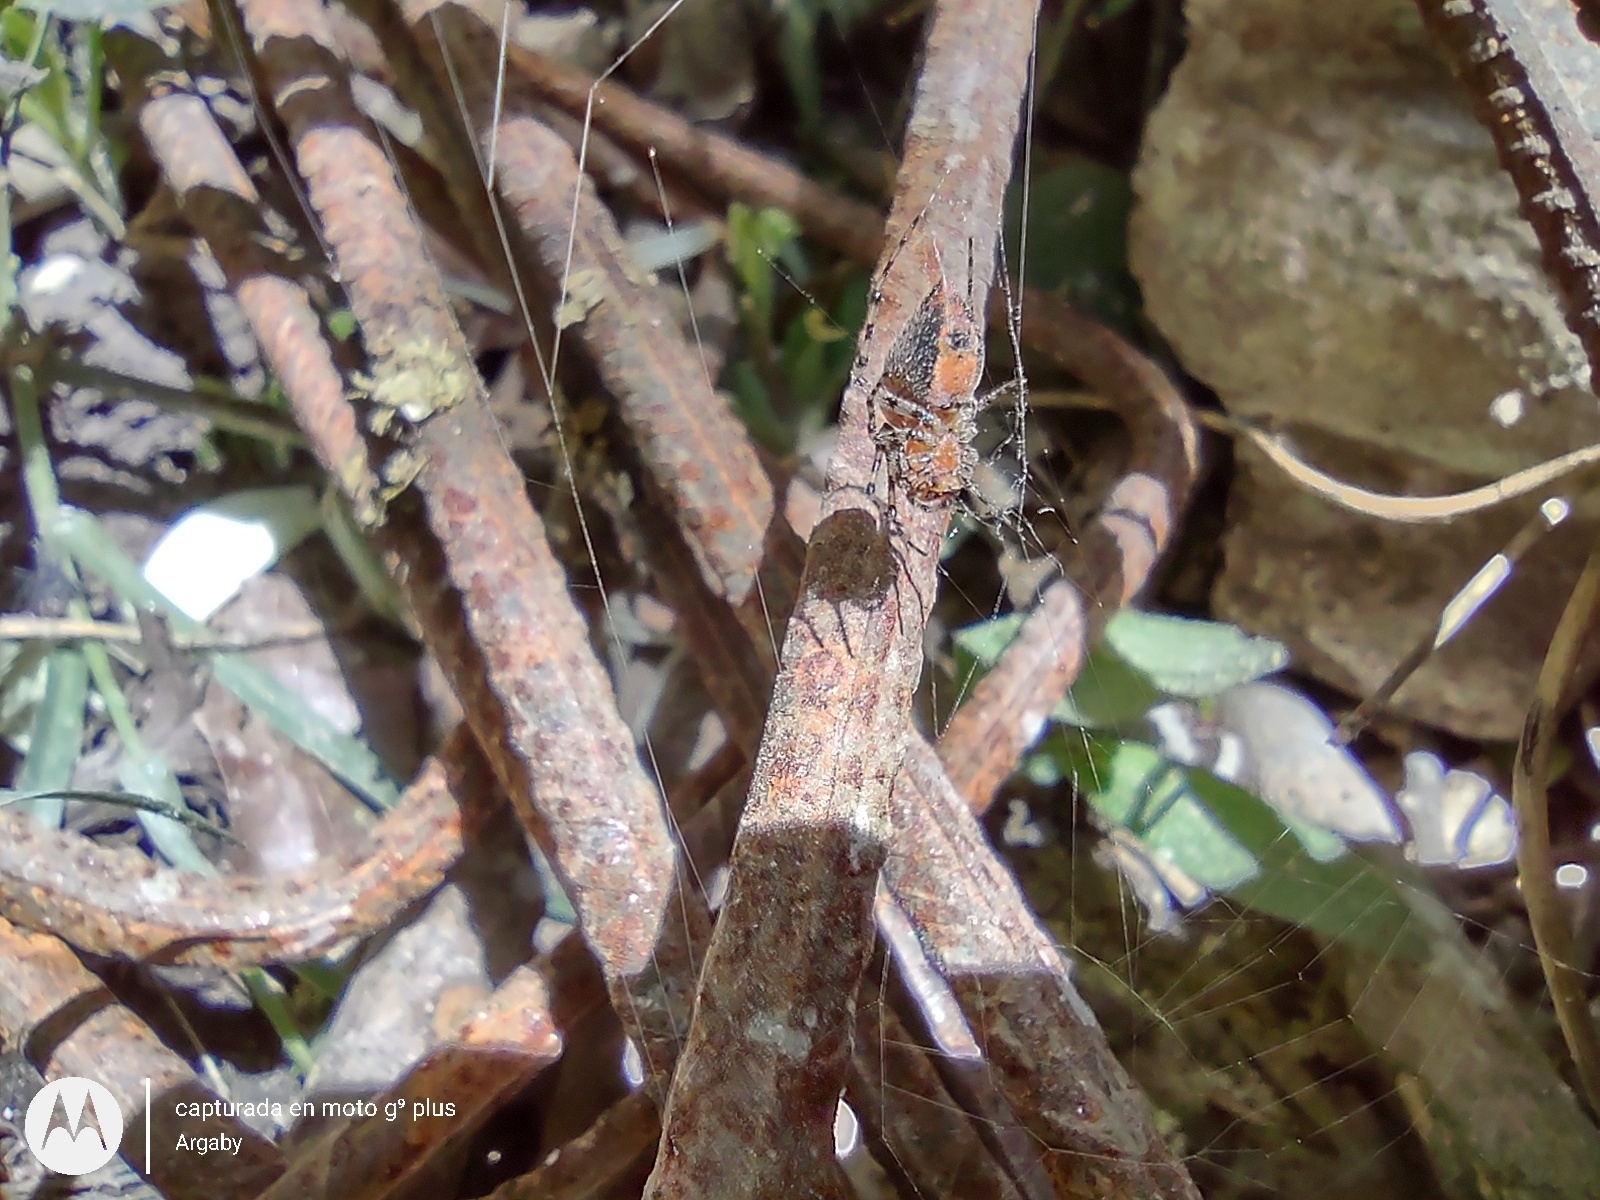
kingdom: Animalia
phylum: Arthropoda
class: Arachnida
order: Araneae
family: Araneidae
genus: Alpaida
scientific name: Alpaida gallardoi
